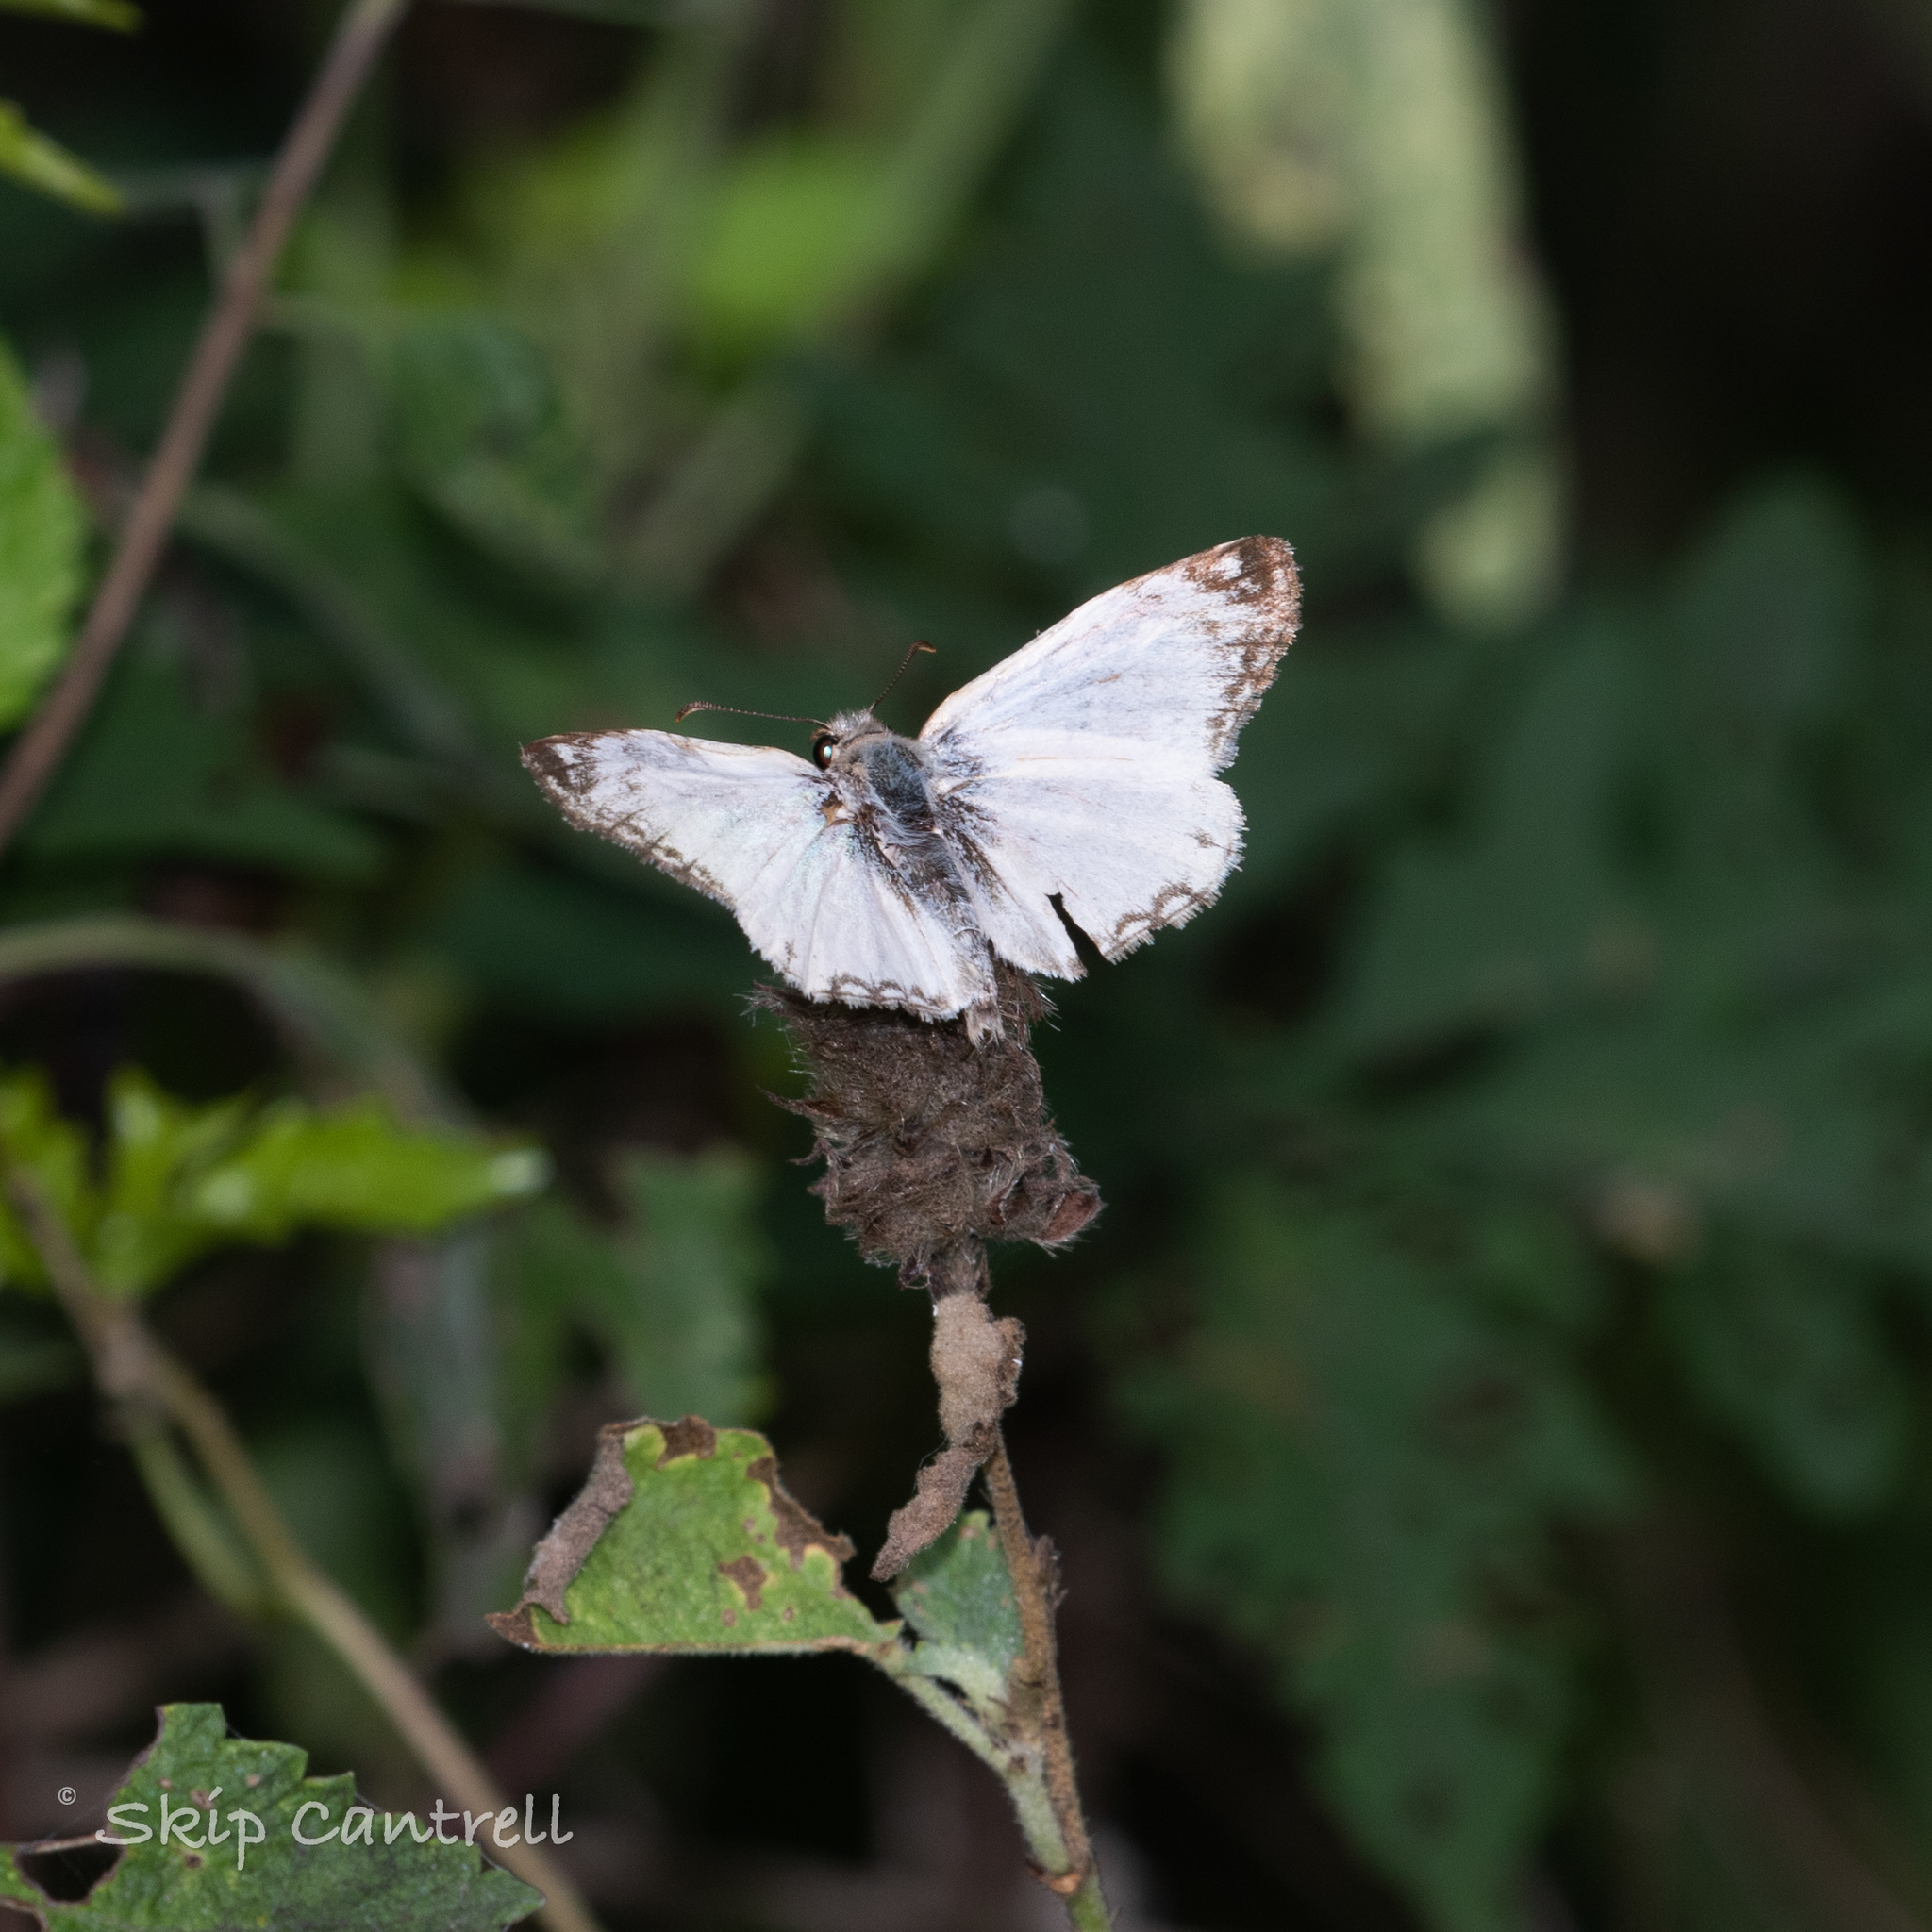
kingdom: Animalia
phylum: Arthropoda
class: Insecta
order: Lepidoptera
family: Hesperiidae
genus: Heliopetes
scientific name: Heliopetes laviana
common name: Laviana white-skipper
